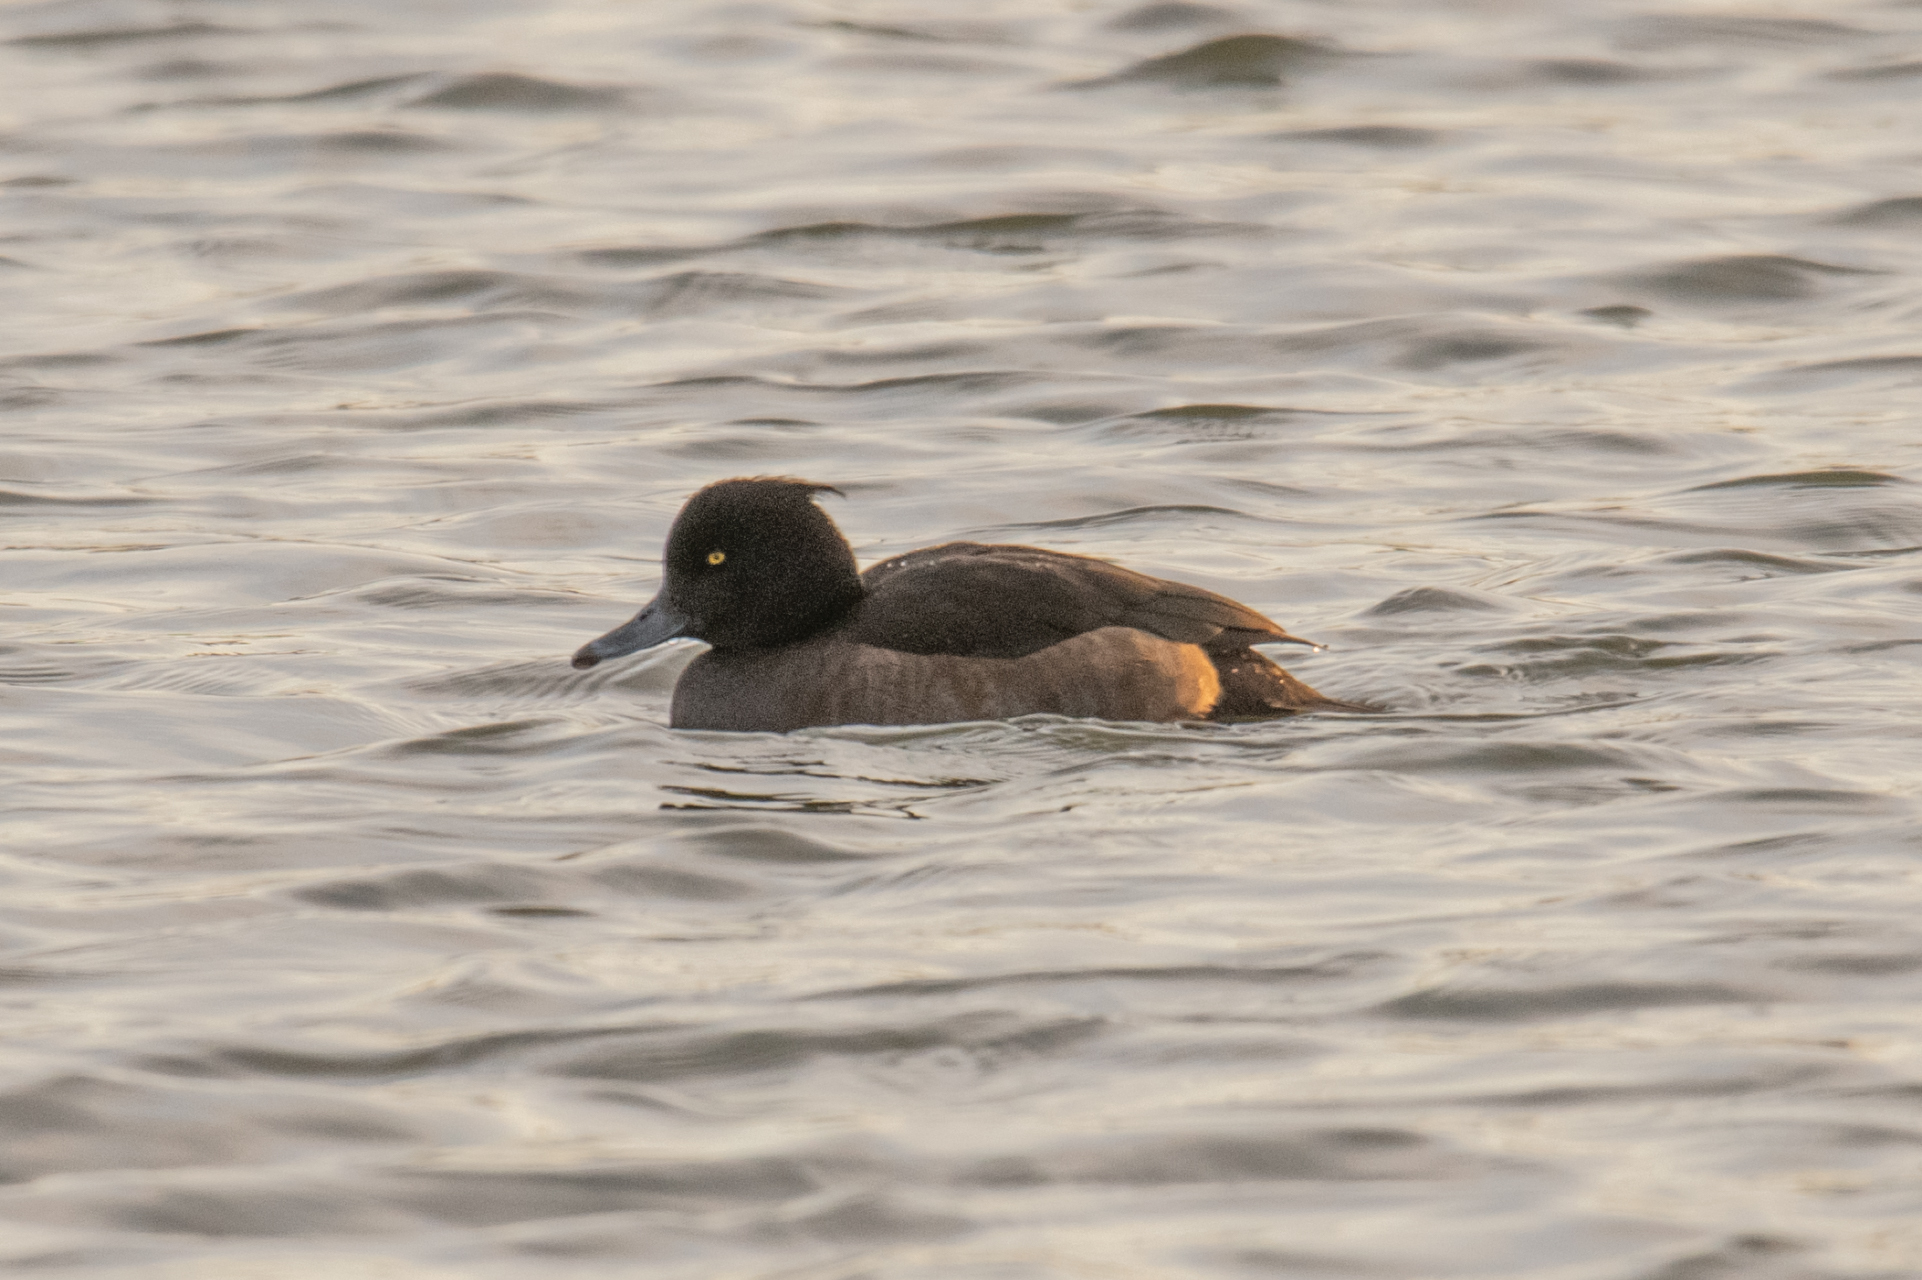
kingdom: Animalia
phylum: Chordata
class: Aves
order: Anseriformes
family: Anatidae
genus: Aythya
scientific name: Aythya fuligula
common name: Tufted duck
